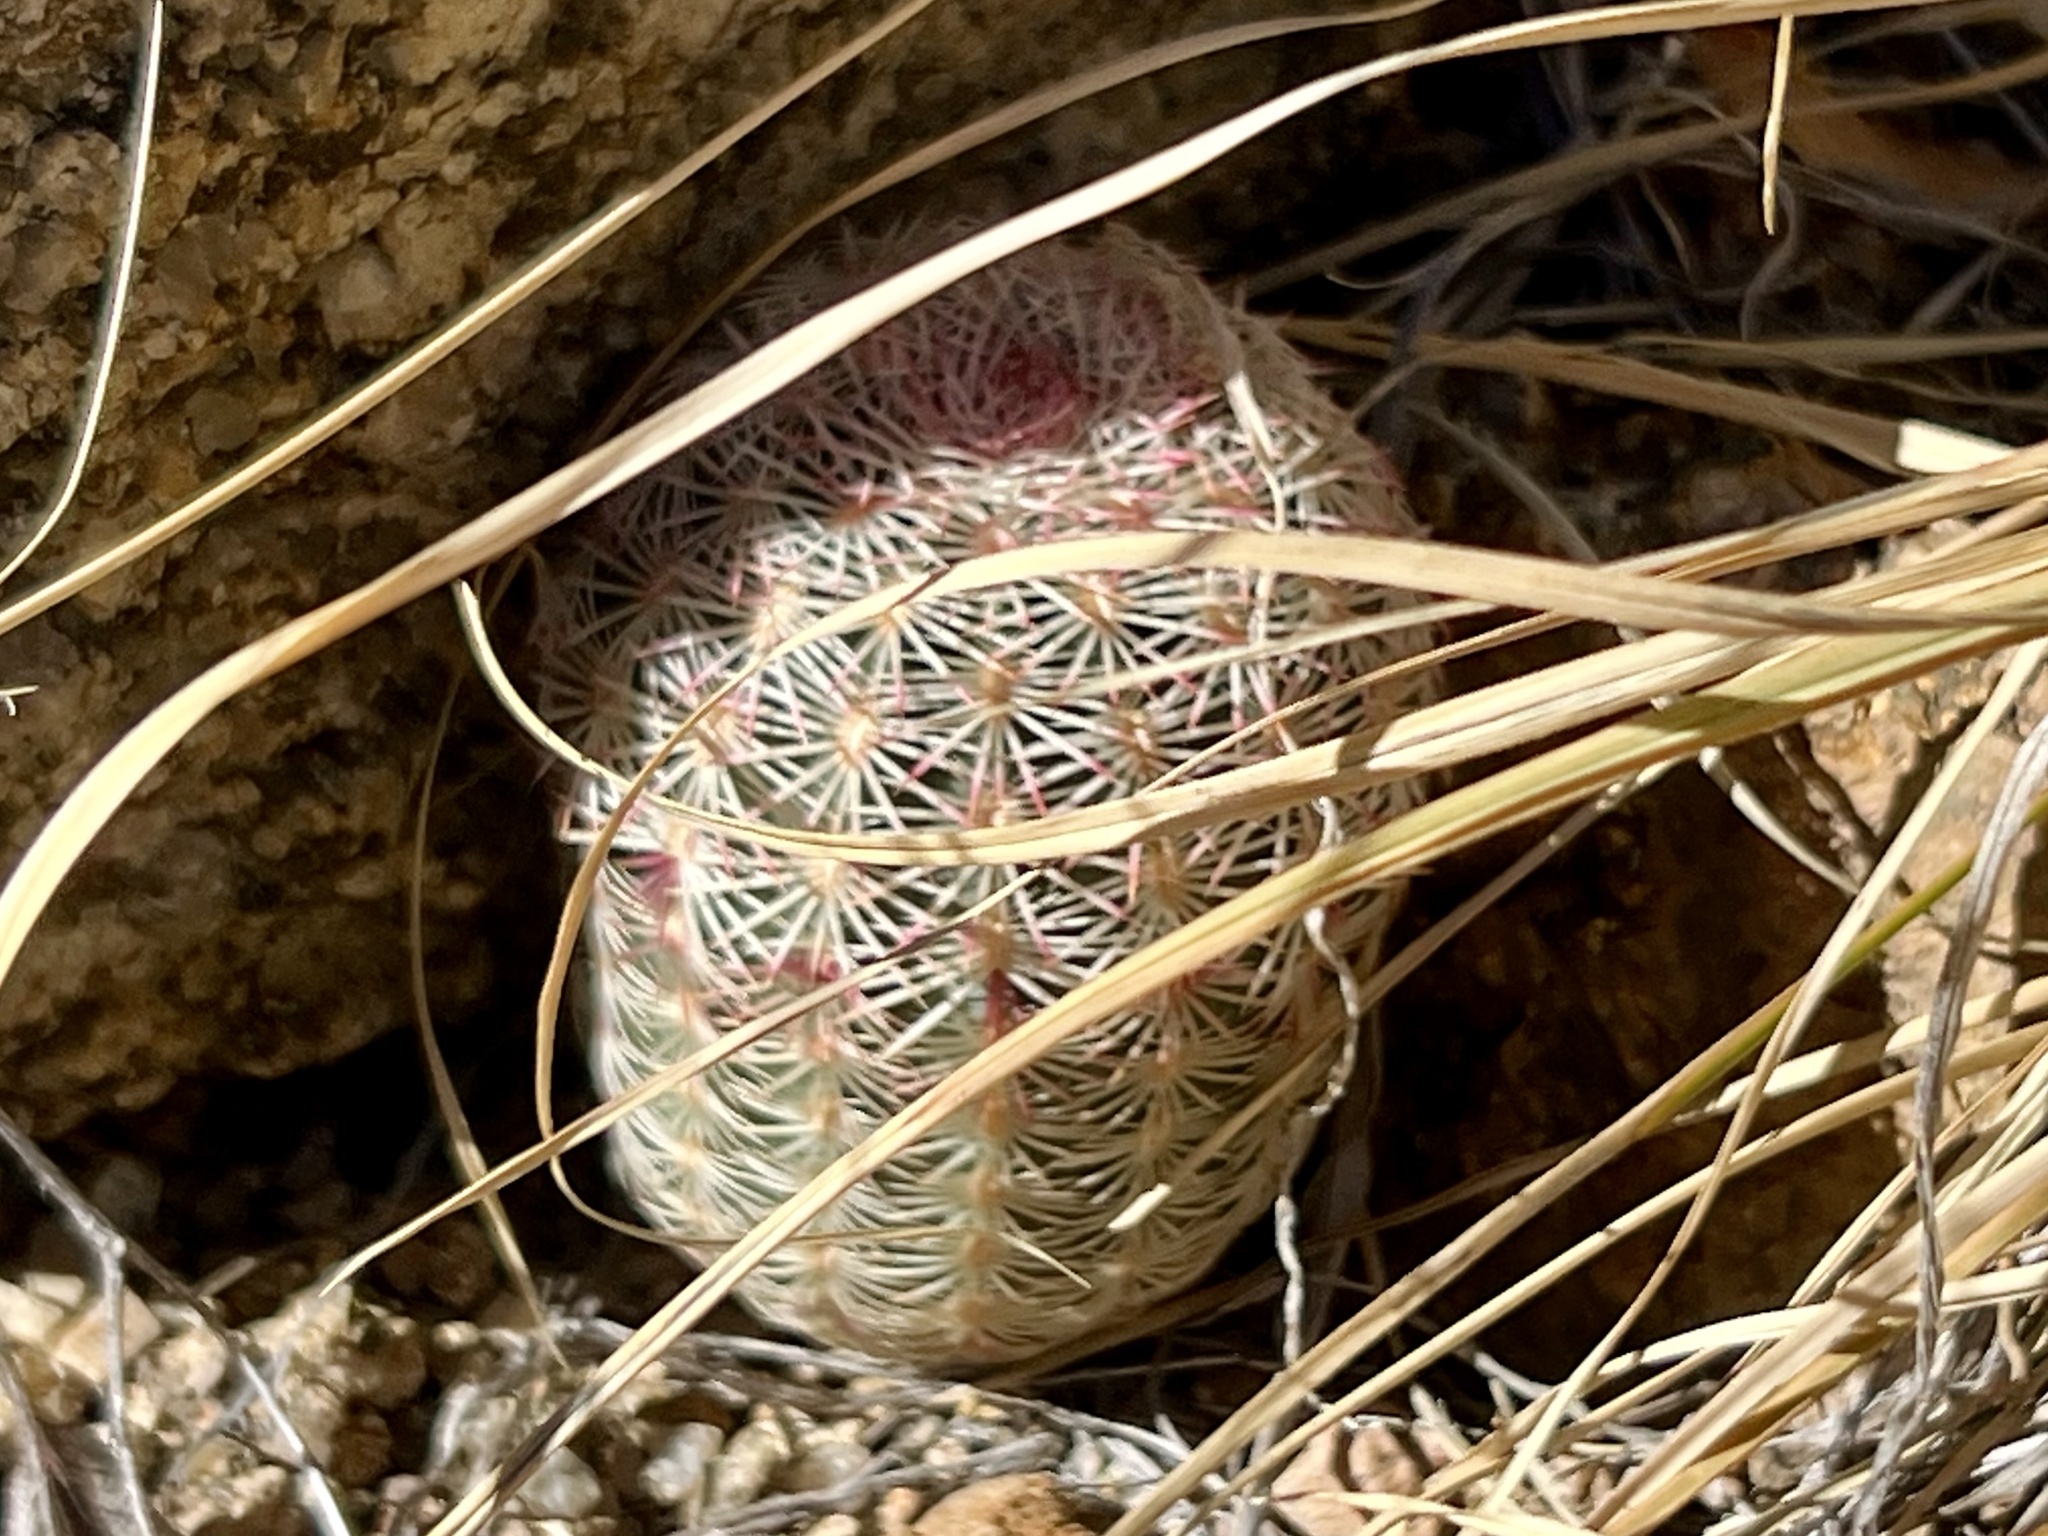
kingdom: Plantae
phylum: Tracheophyta
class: Magnoliopsida
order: Caryophyllales
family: Cactaceae
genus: Echinocereus
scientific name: Echinocereus rigidissimus
